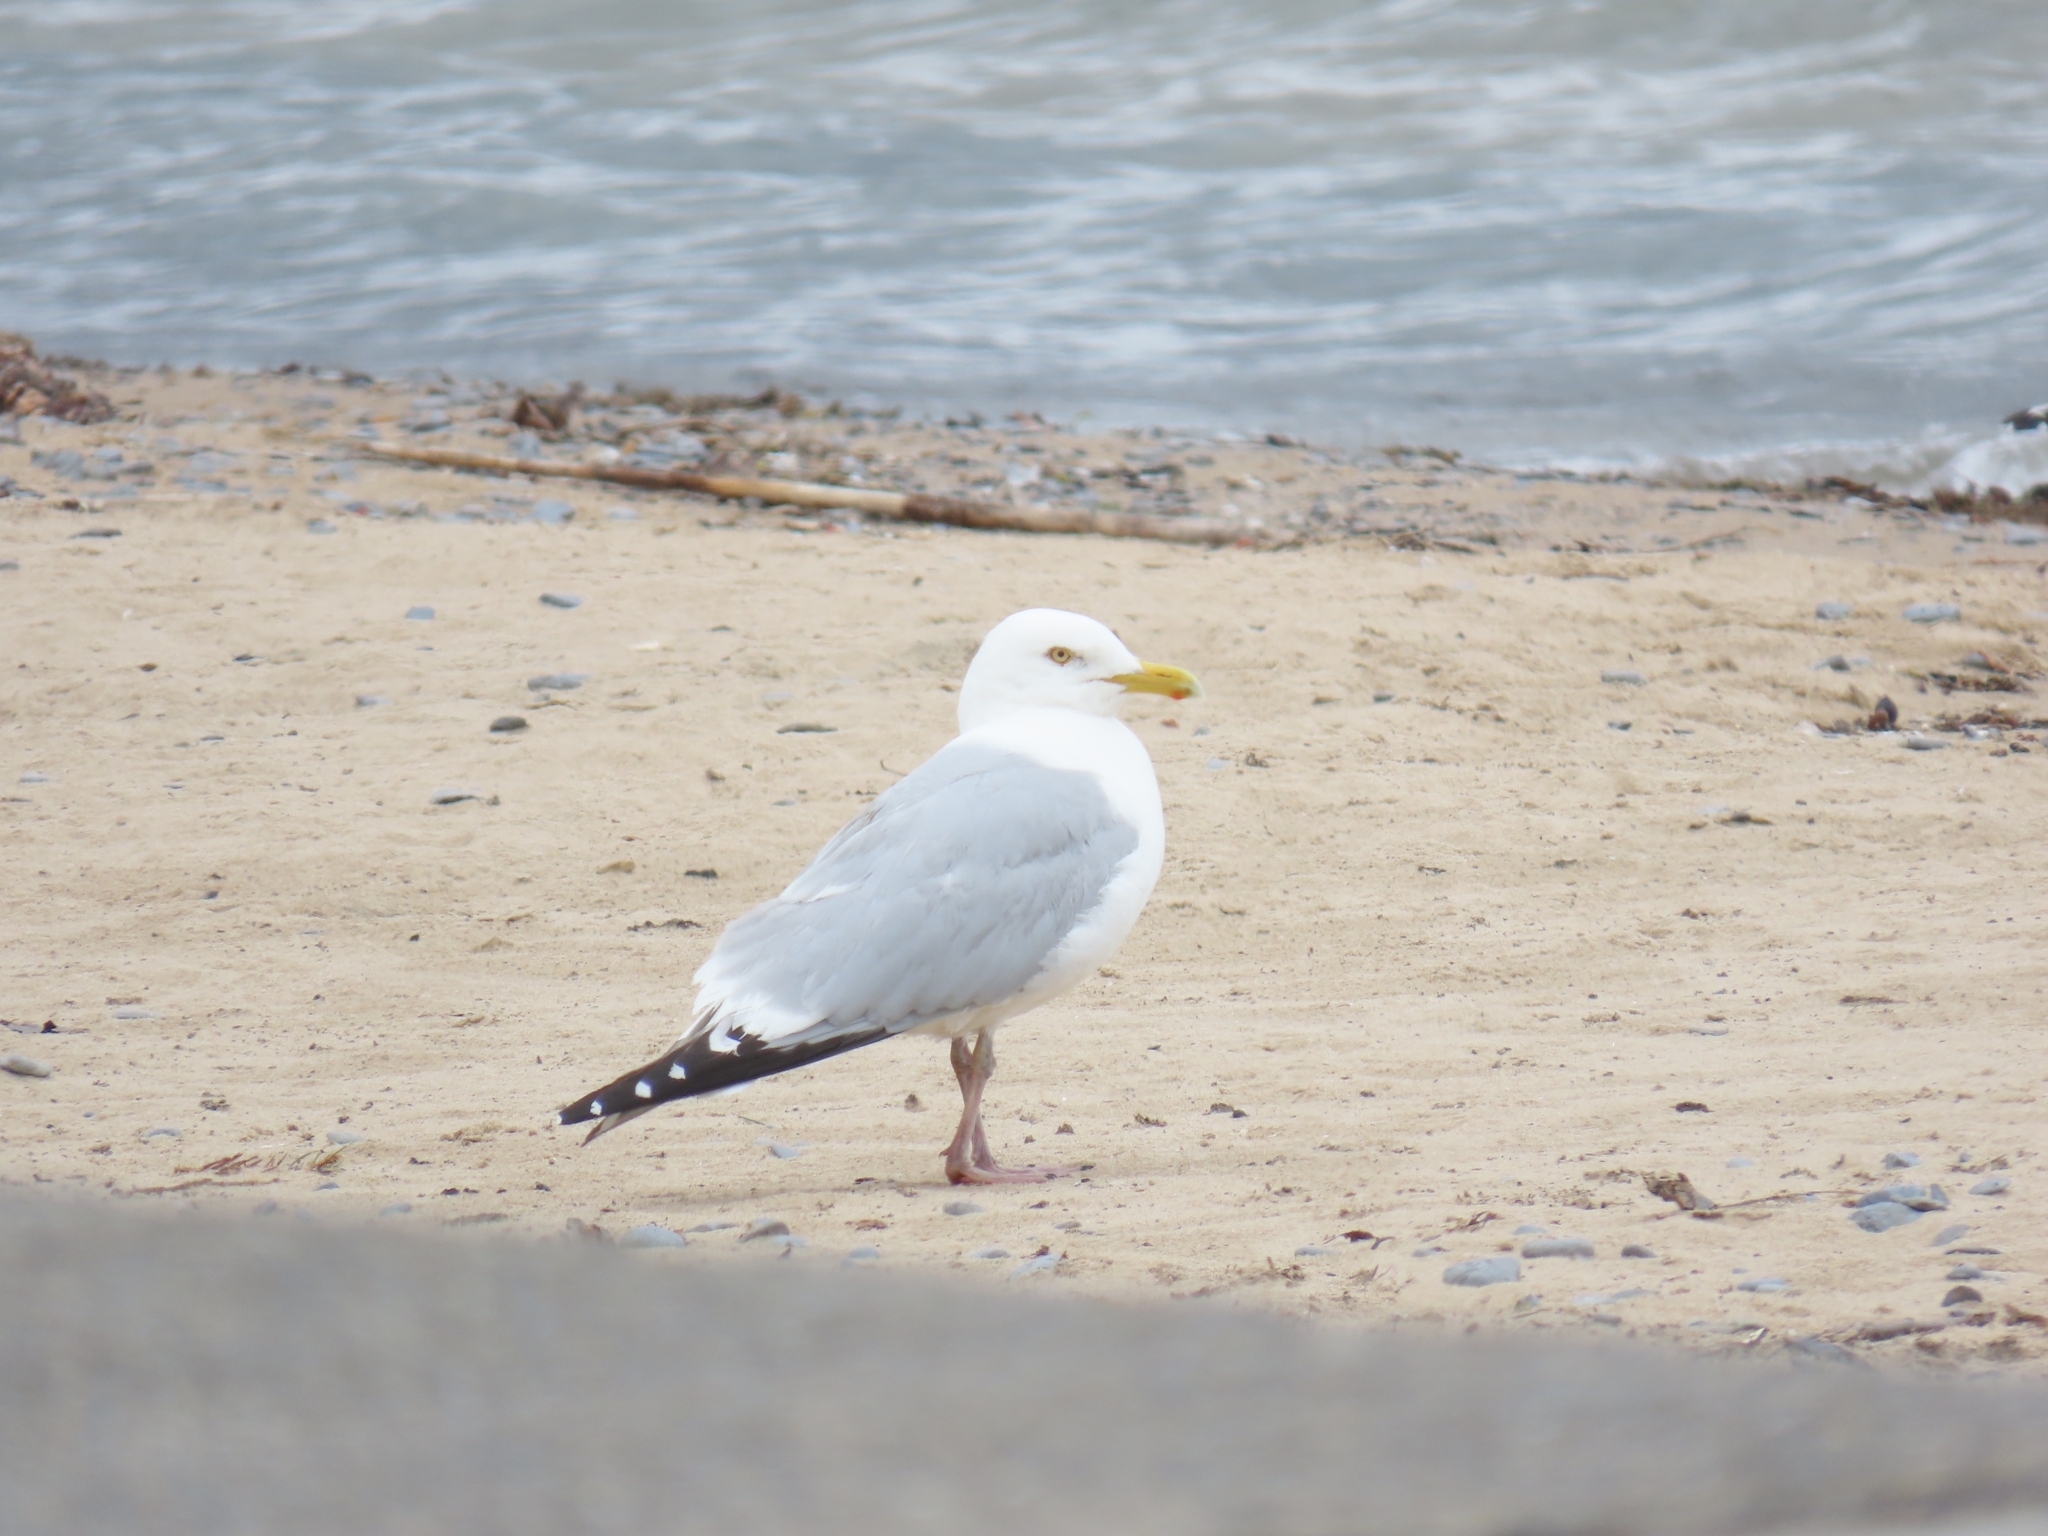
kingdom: Animalia
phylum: Chordata
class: Aves
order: Charadriiformes
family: Laridae
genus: Larus
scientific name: Larus argentatus
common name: Herring gull
